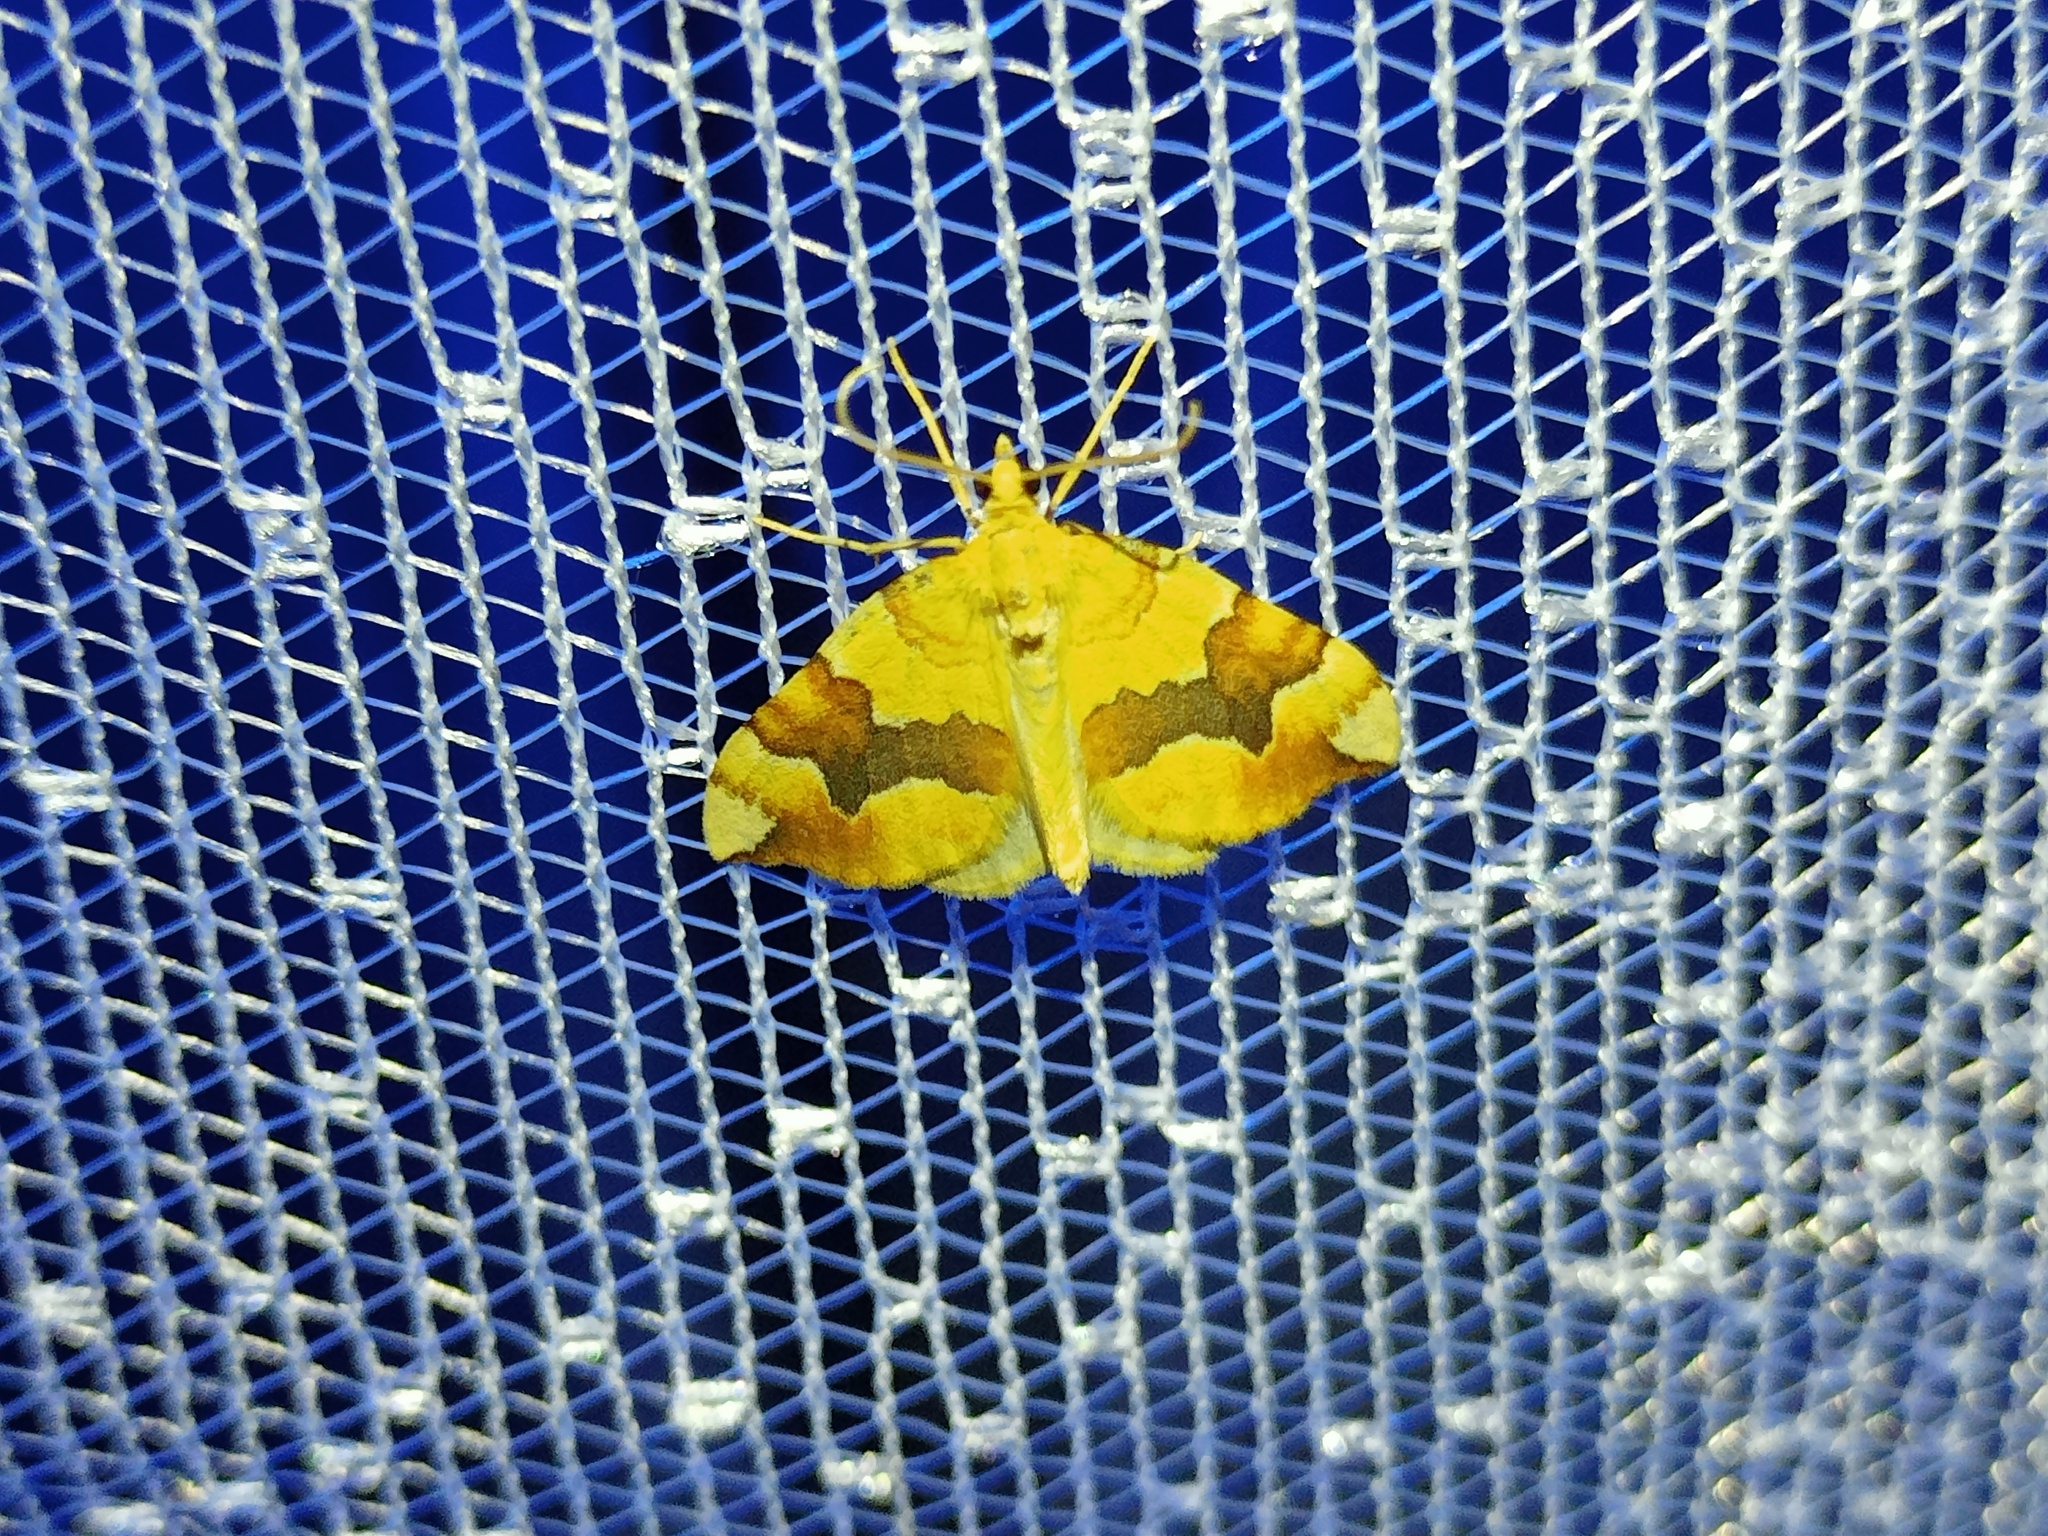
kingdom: Animalia
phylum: Arthropoda
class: Insecta
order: Lepidoptera
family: Geometridae
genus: Cidaria
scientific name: Cidaria fulvata
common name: Barred yellow
